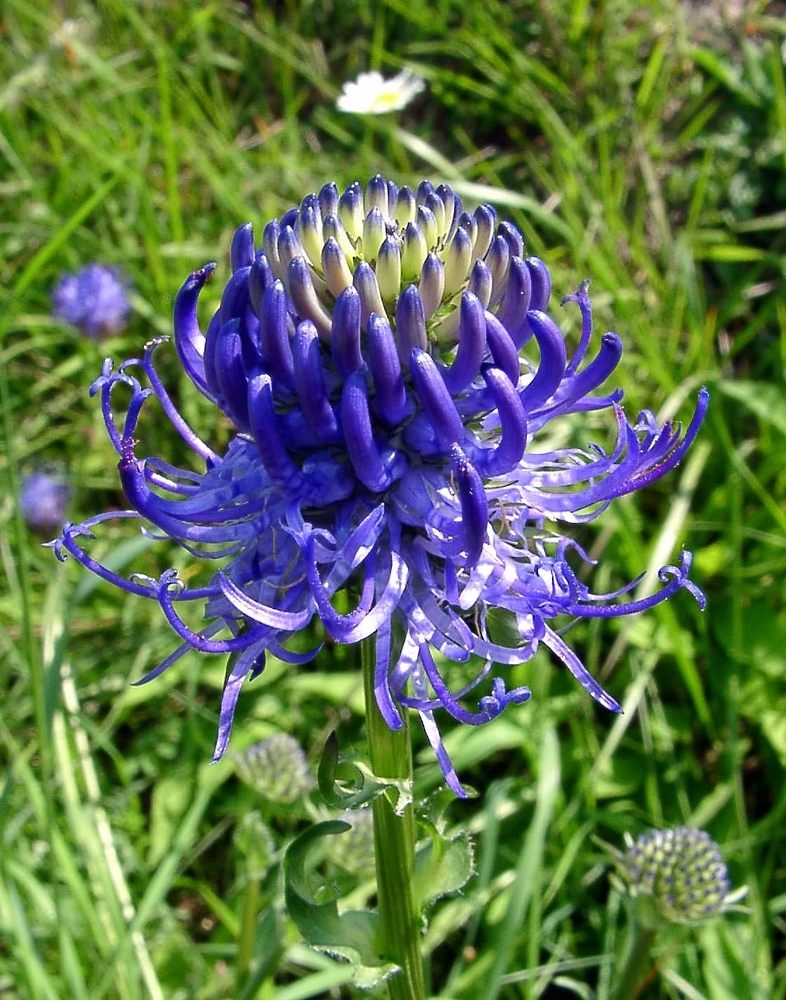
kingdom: Plantae
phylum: Tracheophyta
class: Magnoliopsida
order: Asterales
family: Campanulaceae
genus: Phyteuma
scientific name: Phyteuma orbiculare
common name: Round-headed rampion
